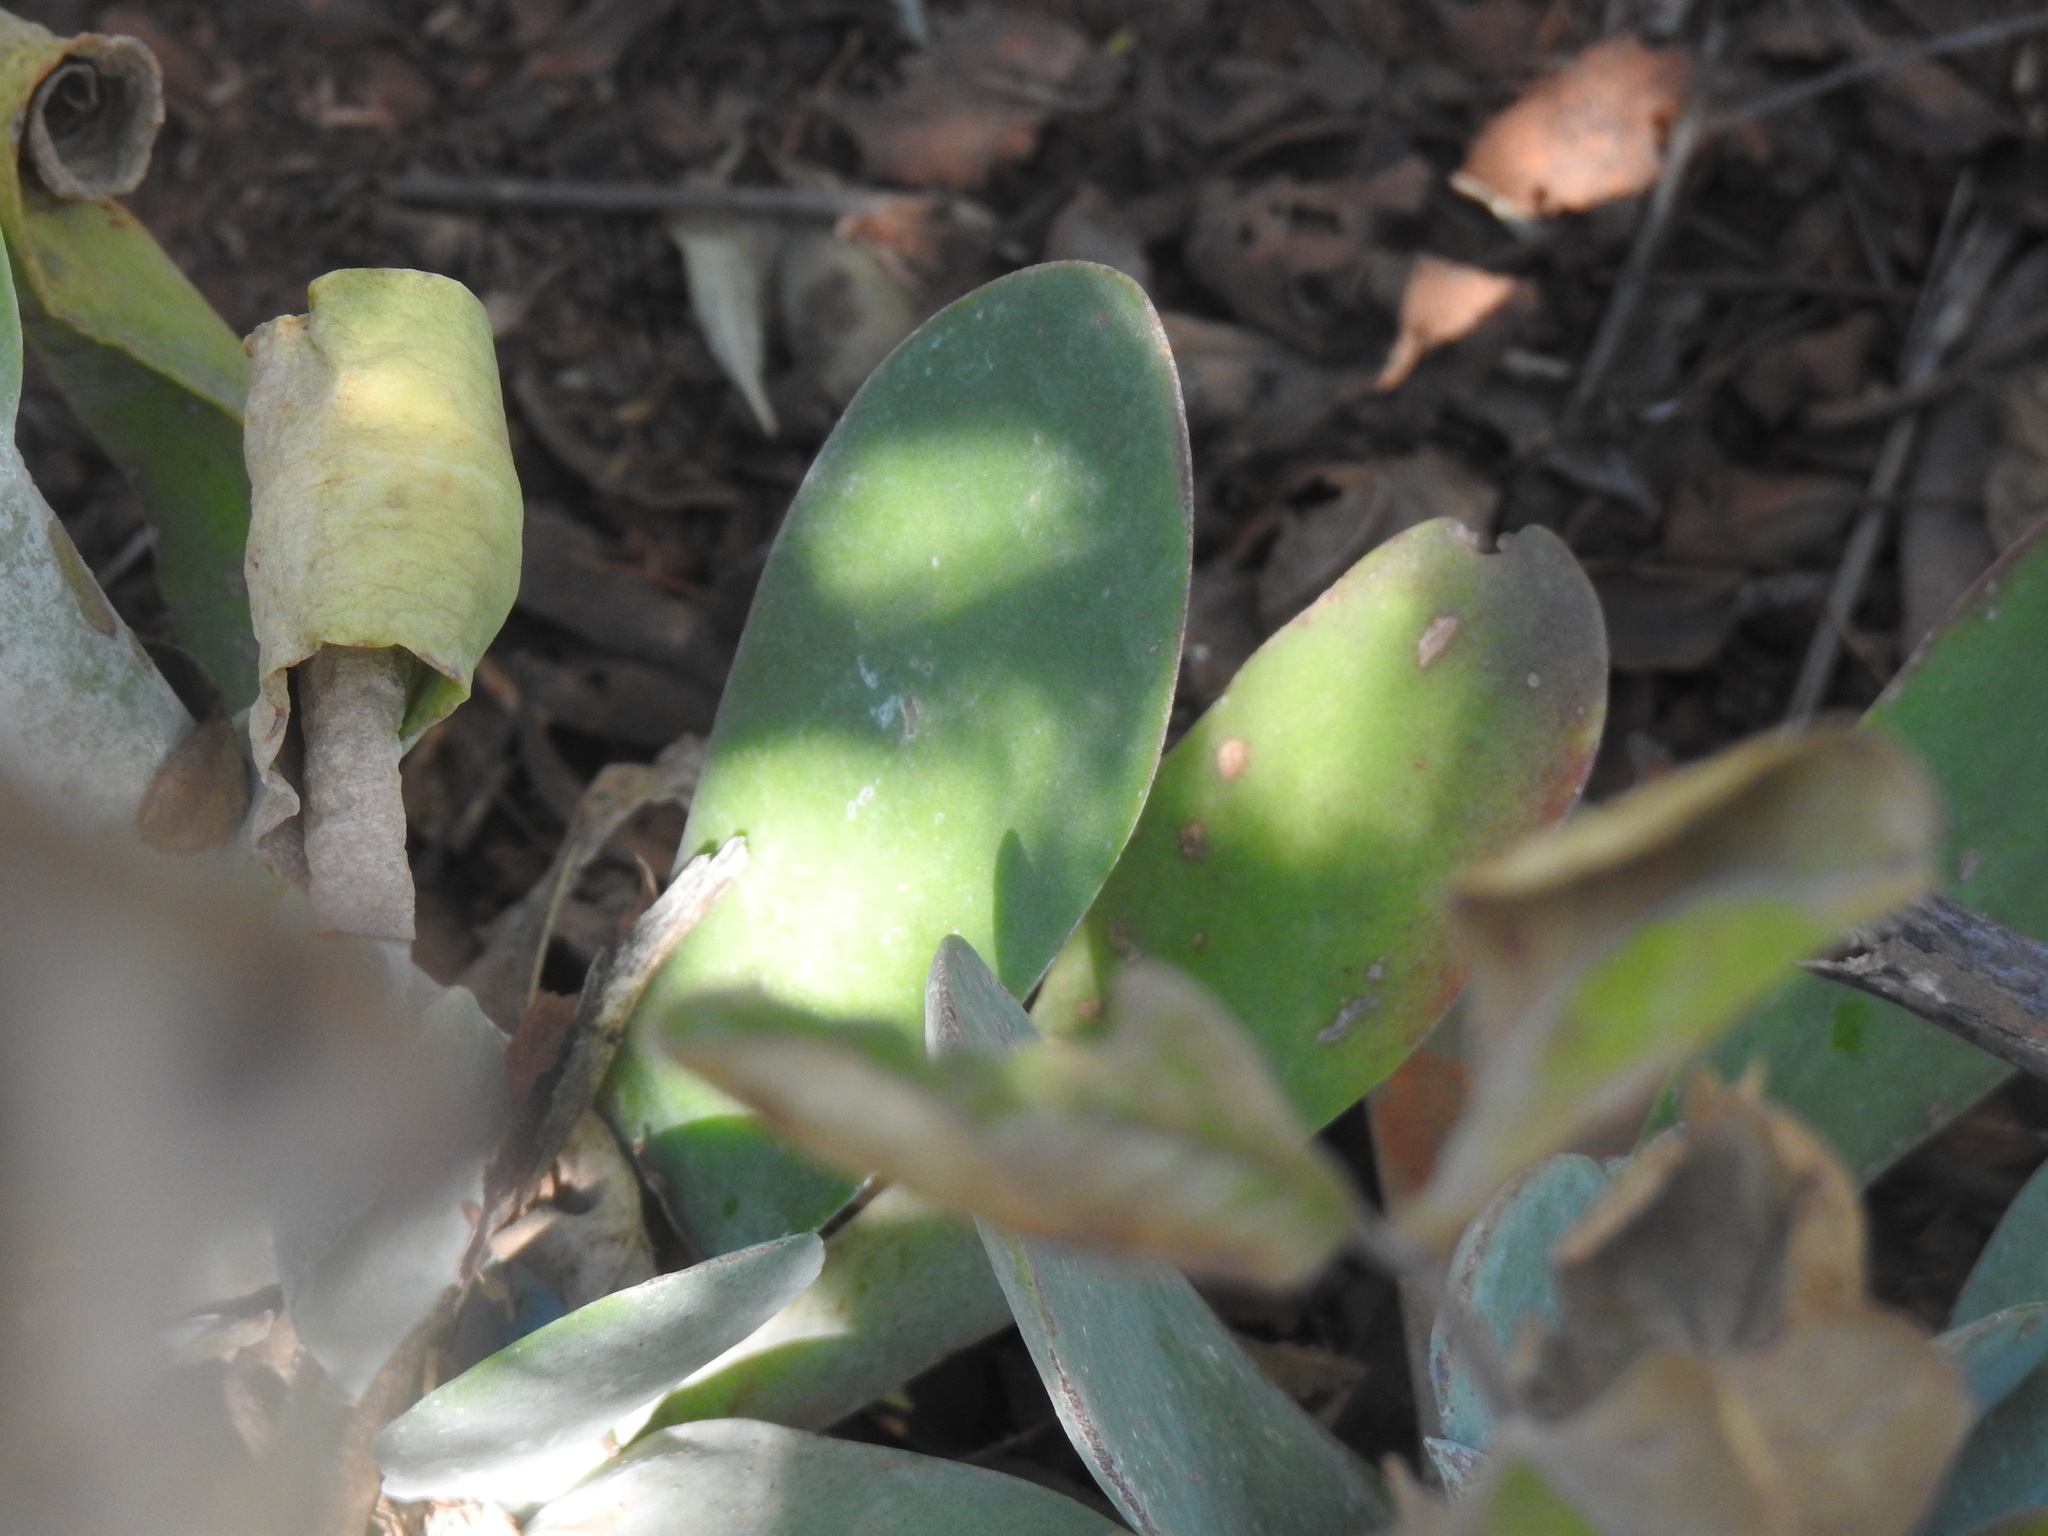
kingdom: Plantae
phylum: Tracheophyta
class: Magnoliopsida
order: Saxifragales
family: Crassulaceae
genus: Kalanchoe
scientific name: Kalanchoe thyrsiflora
